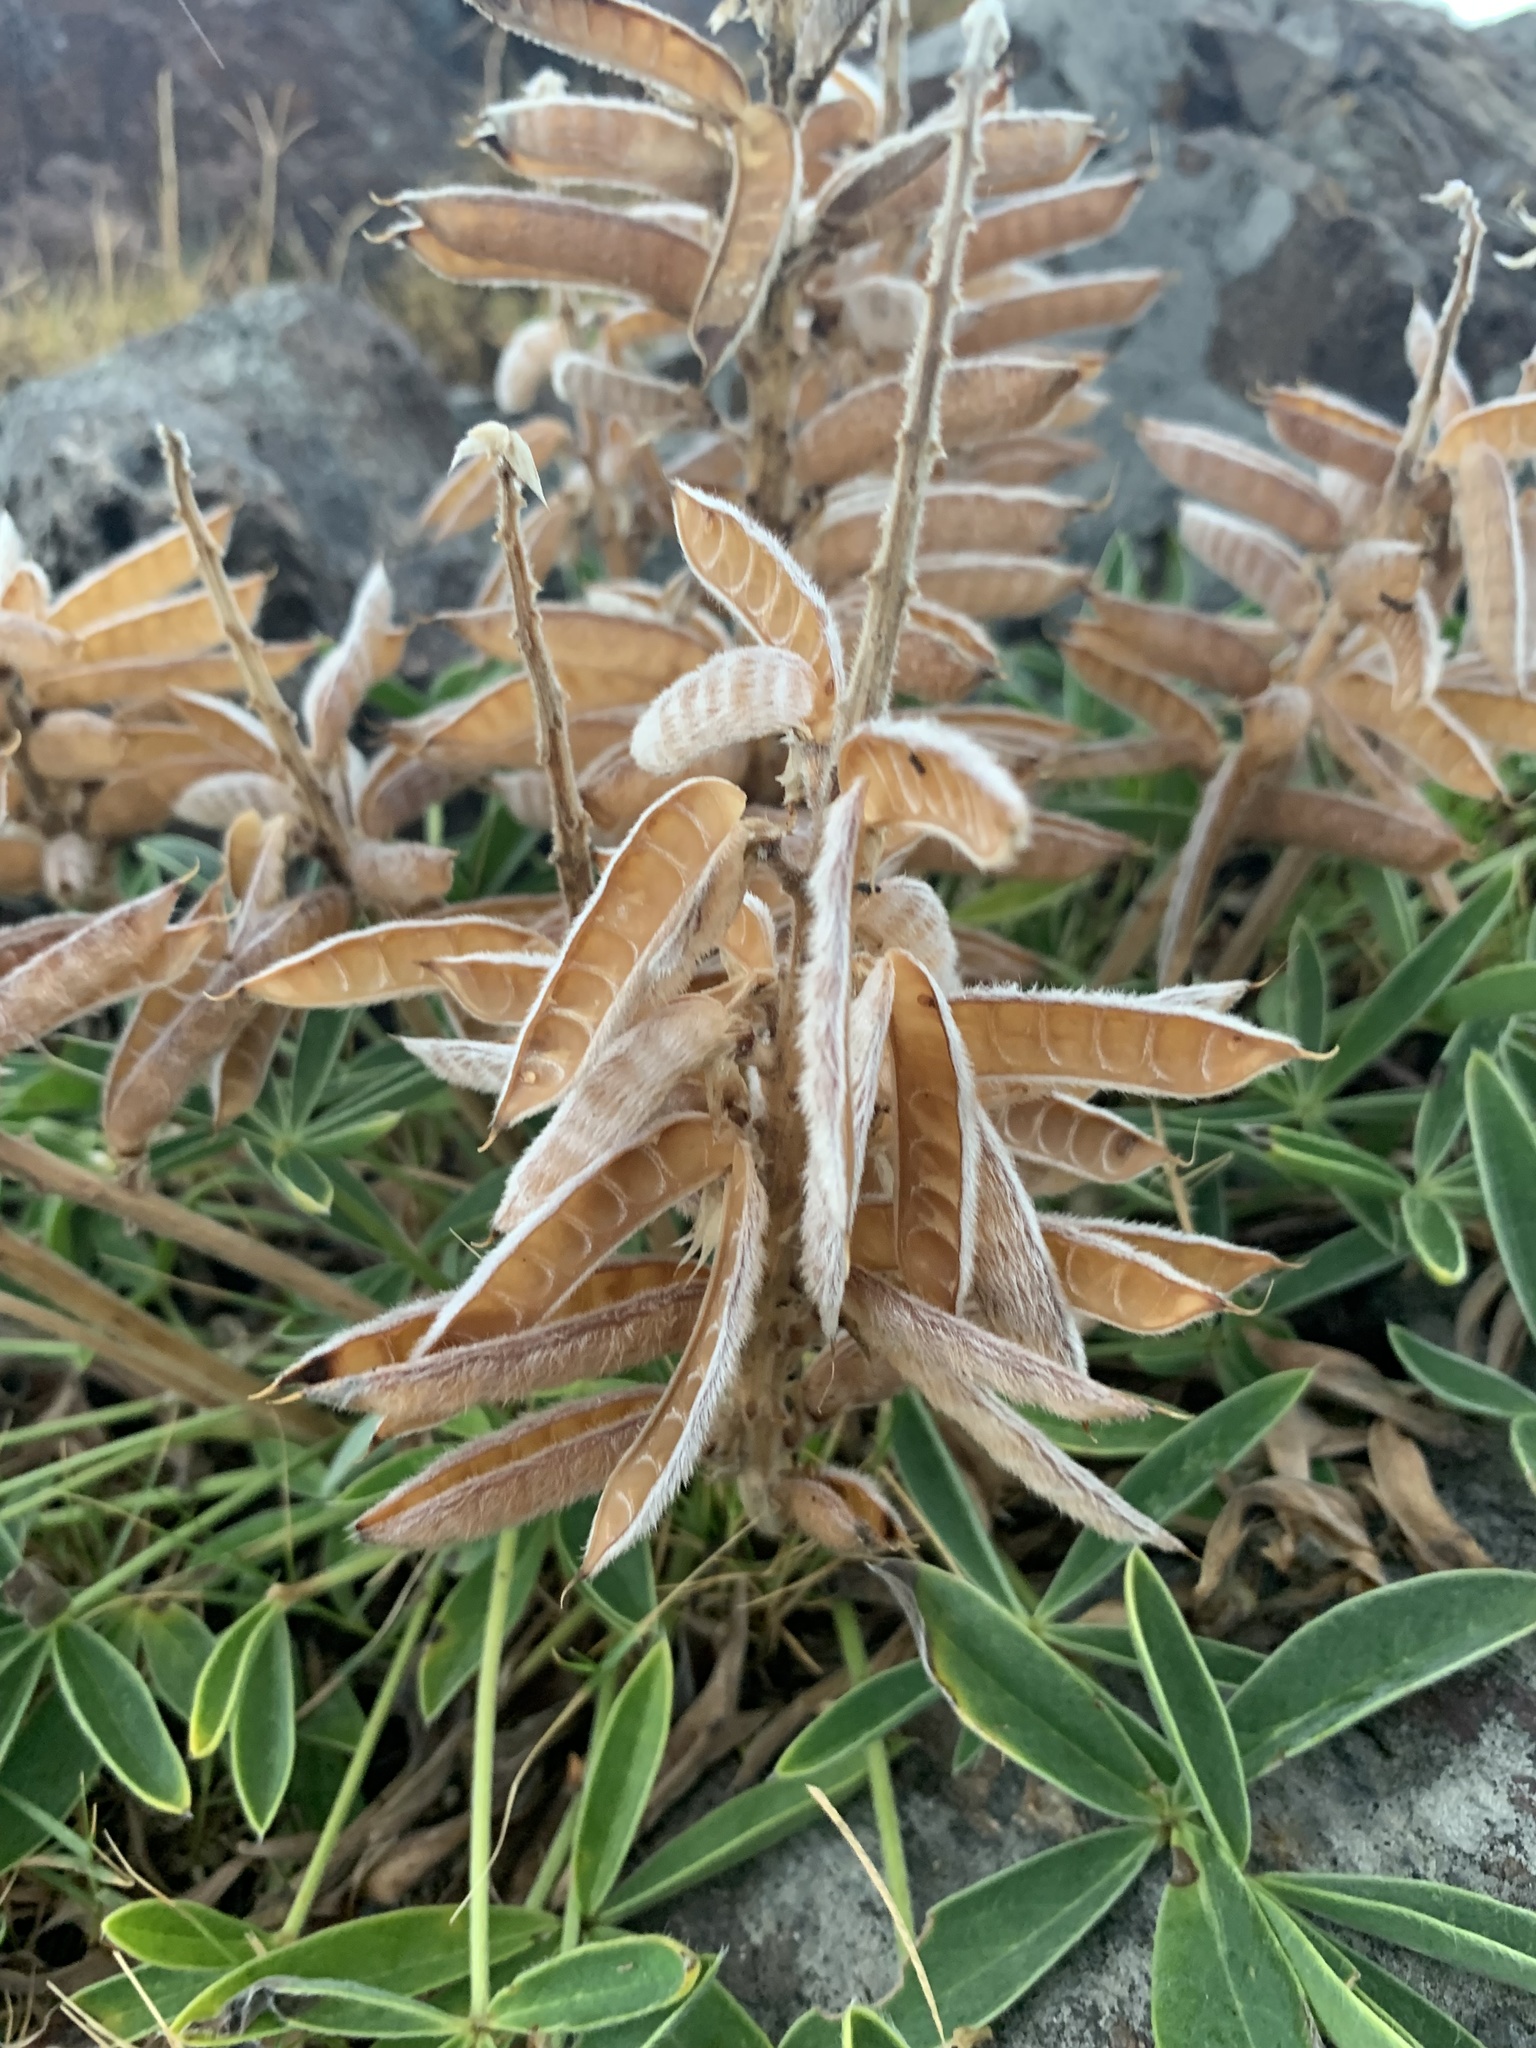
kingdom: Plantae
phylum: Tracheophyta
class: Magnoliopsida
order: Fabales
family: Fabaceae
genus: Lupinus
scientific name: Lupinus multiflorus
